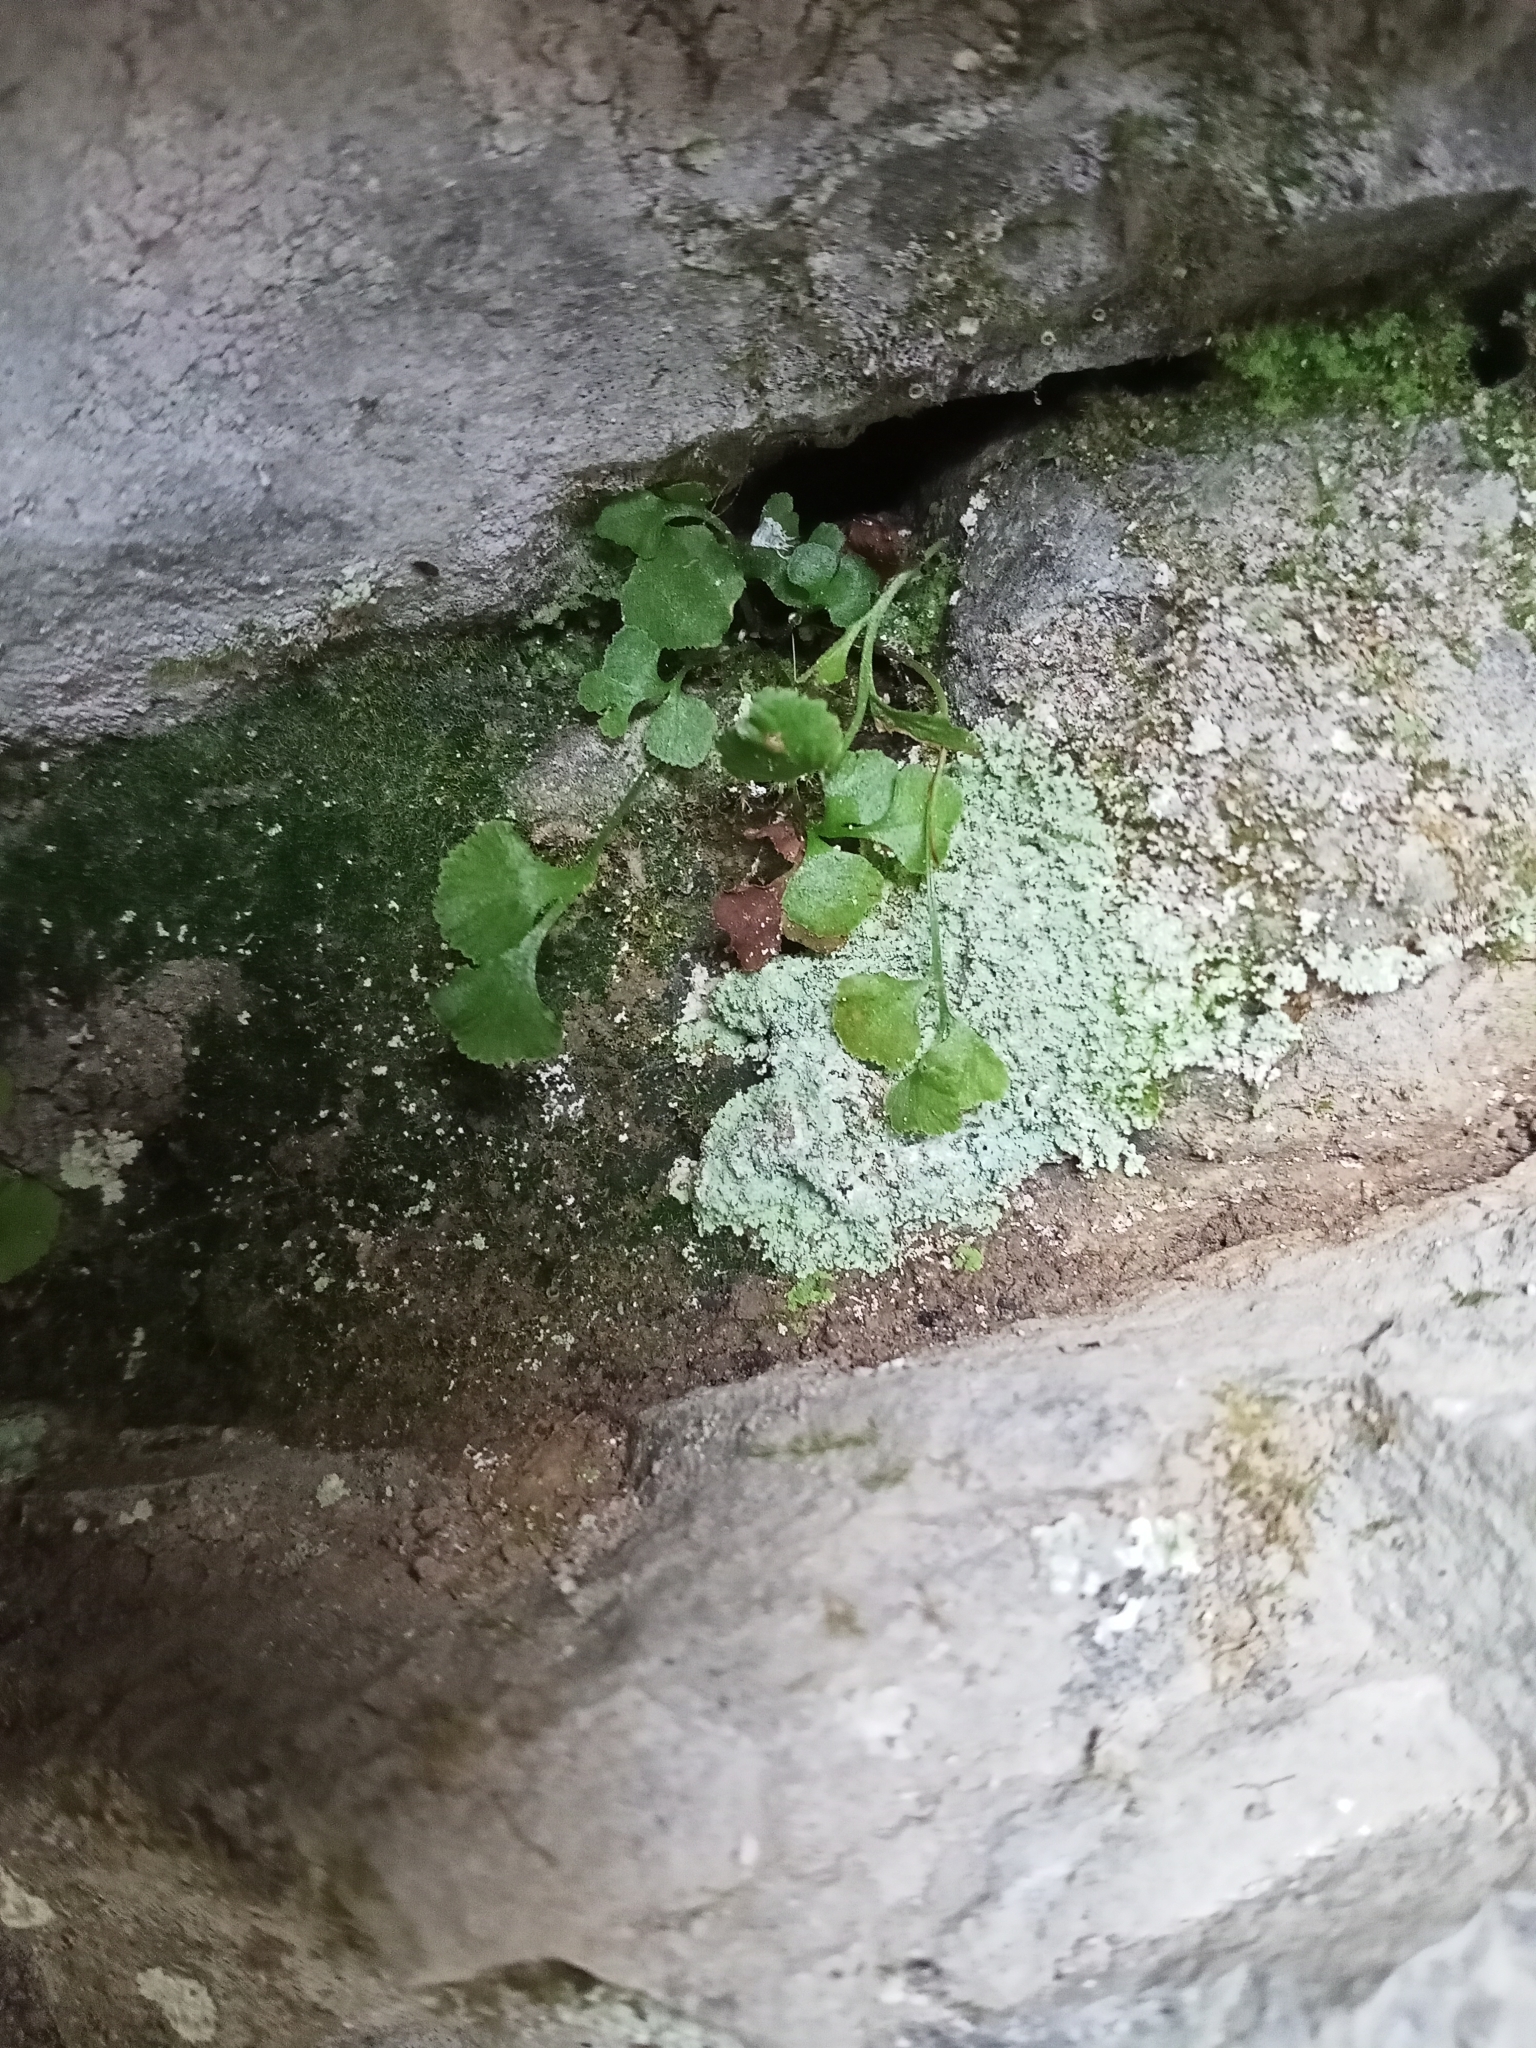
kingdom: Plantae
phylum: Tracheophyta
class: Polypodiopsida
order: Polypodiales
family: Aspleniaceae
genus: Asplenium
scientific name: Asplenium ruta-muraria
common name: Wall-rue
